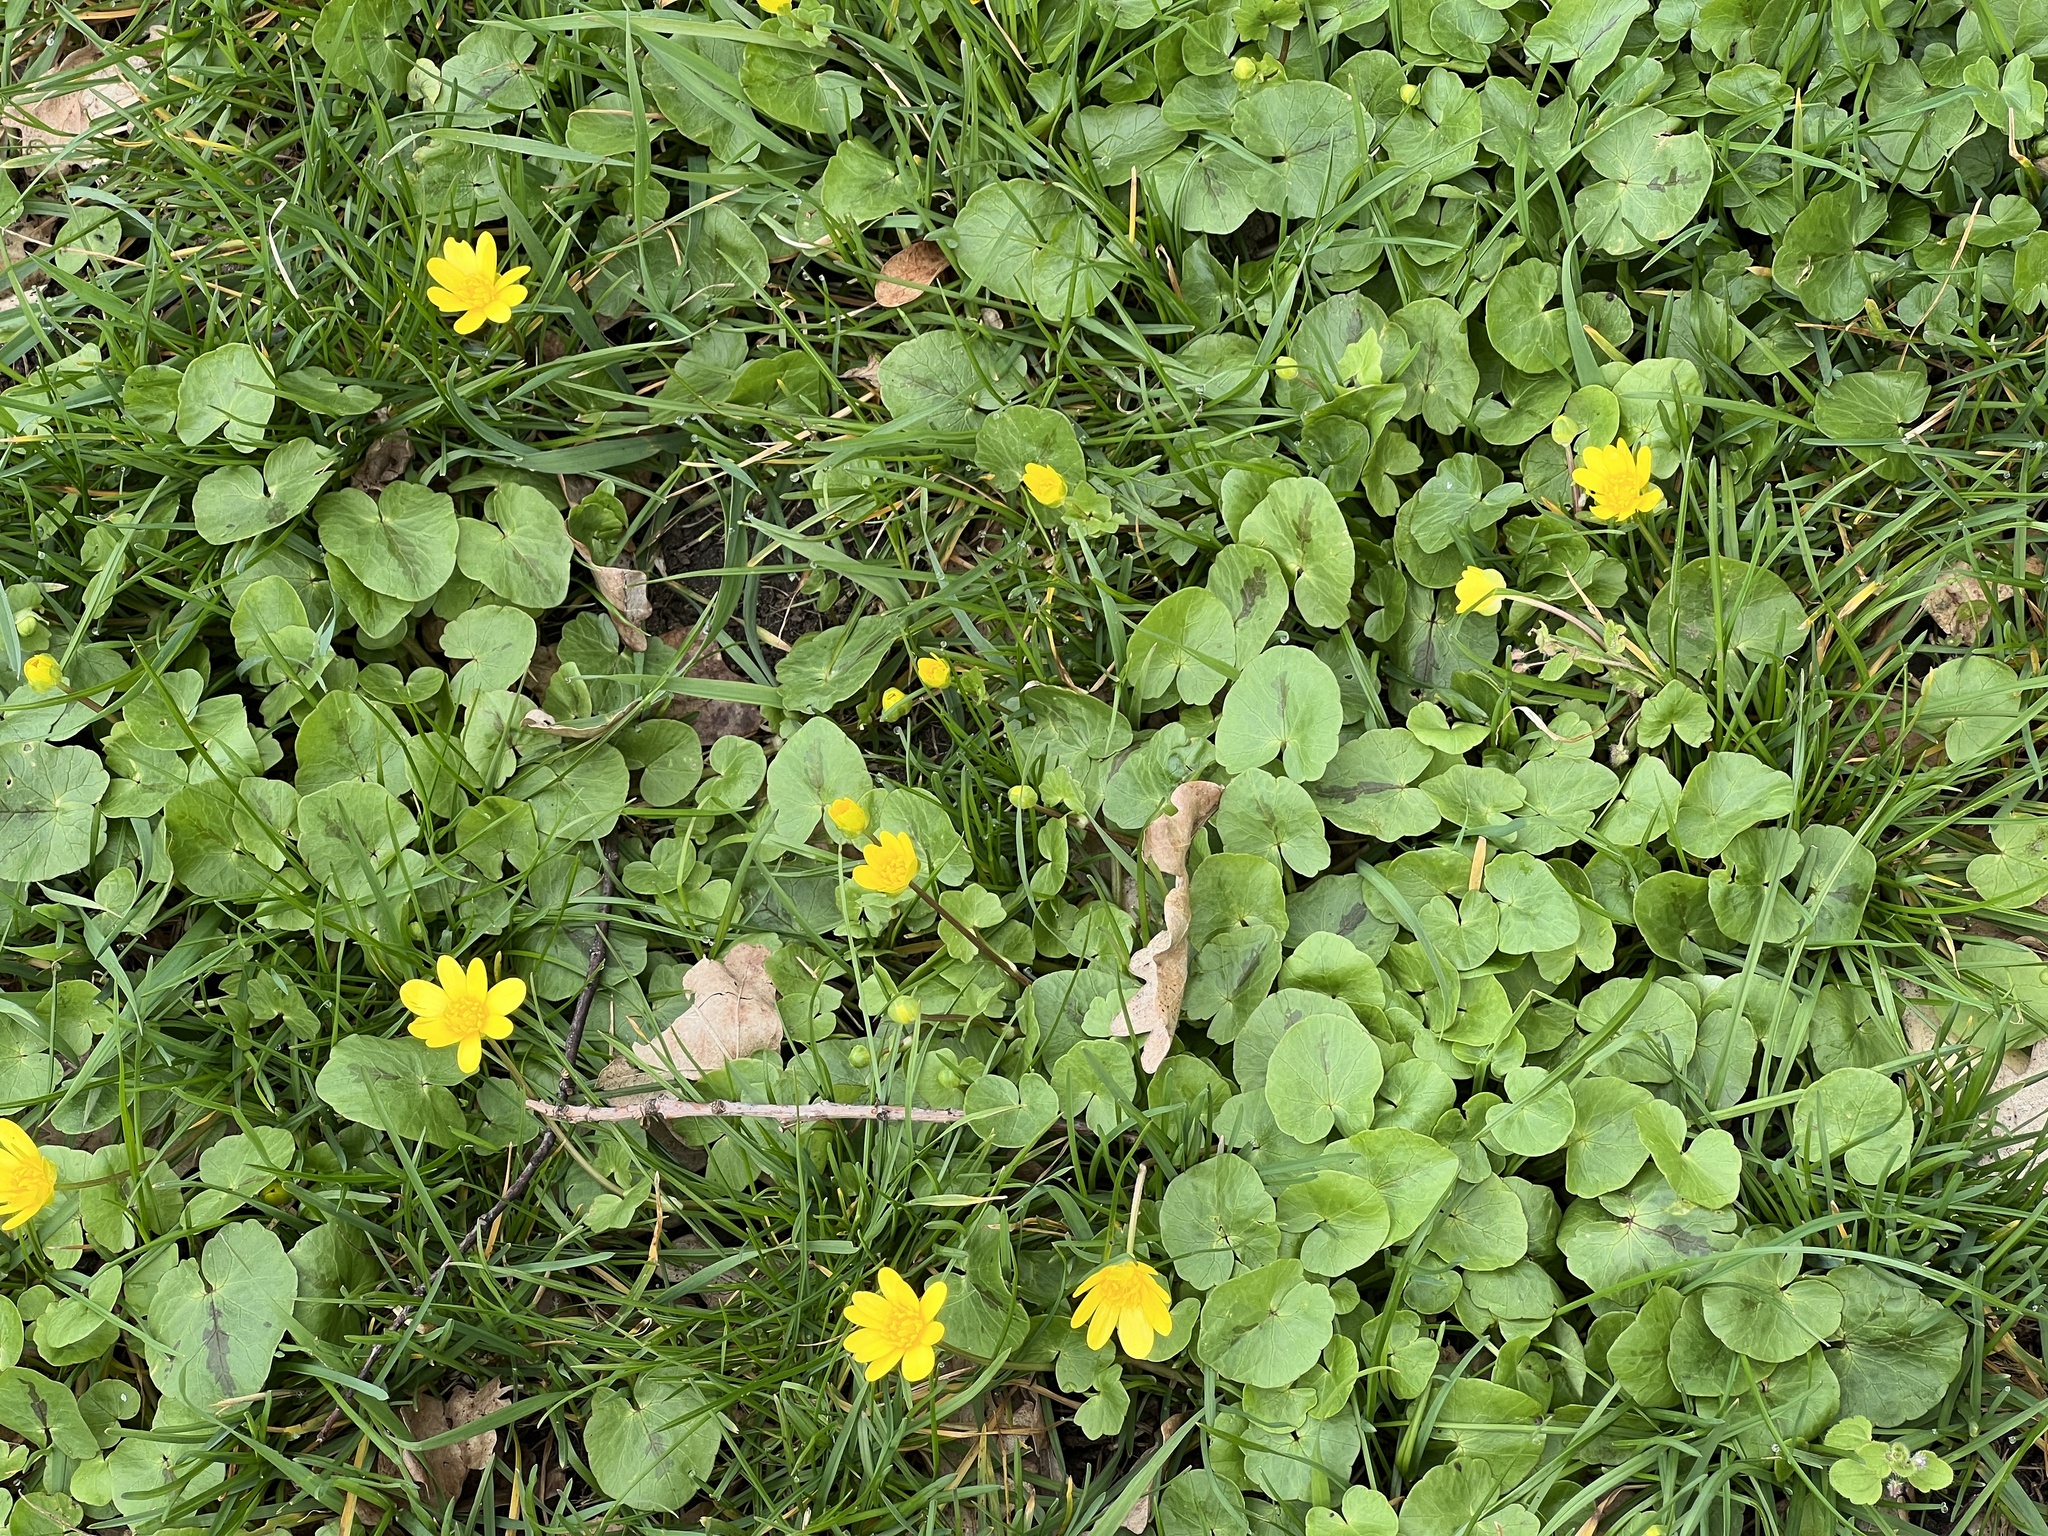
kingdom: Plantae
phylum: Tracheophyta
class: Magnoliopsida
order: Ranunculales
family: Ranunculaceae
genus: Ficaria
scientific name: Ficaria verna
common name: Lesser celandine
